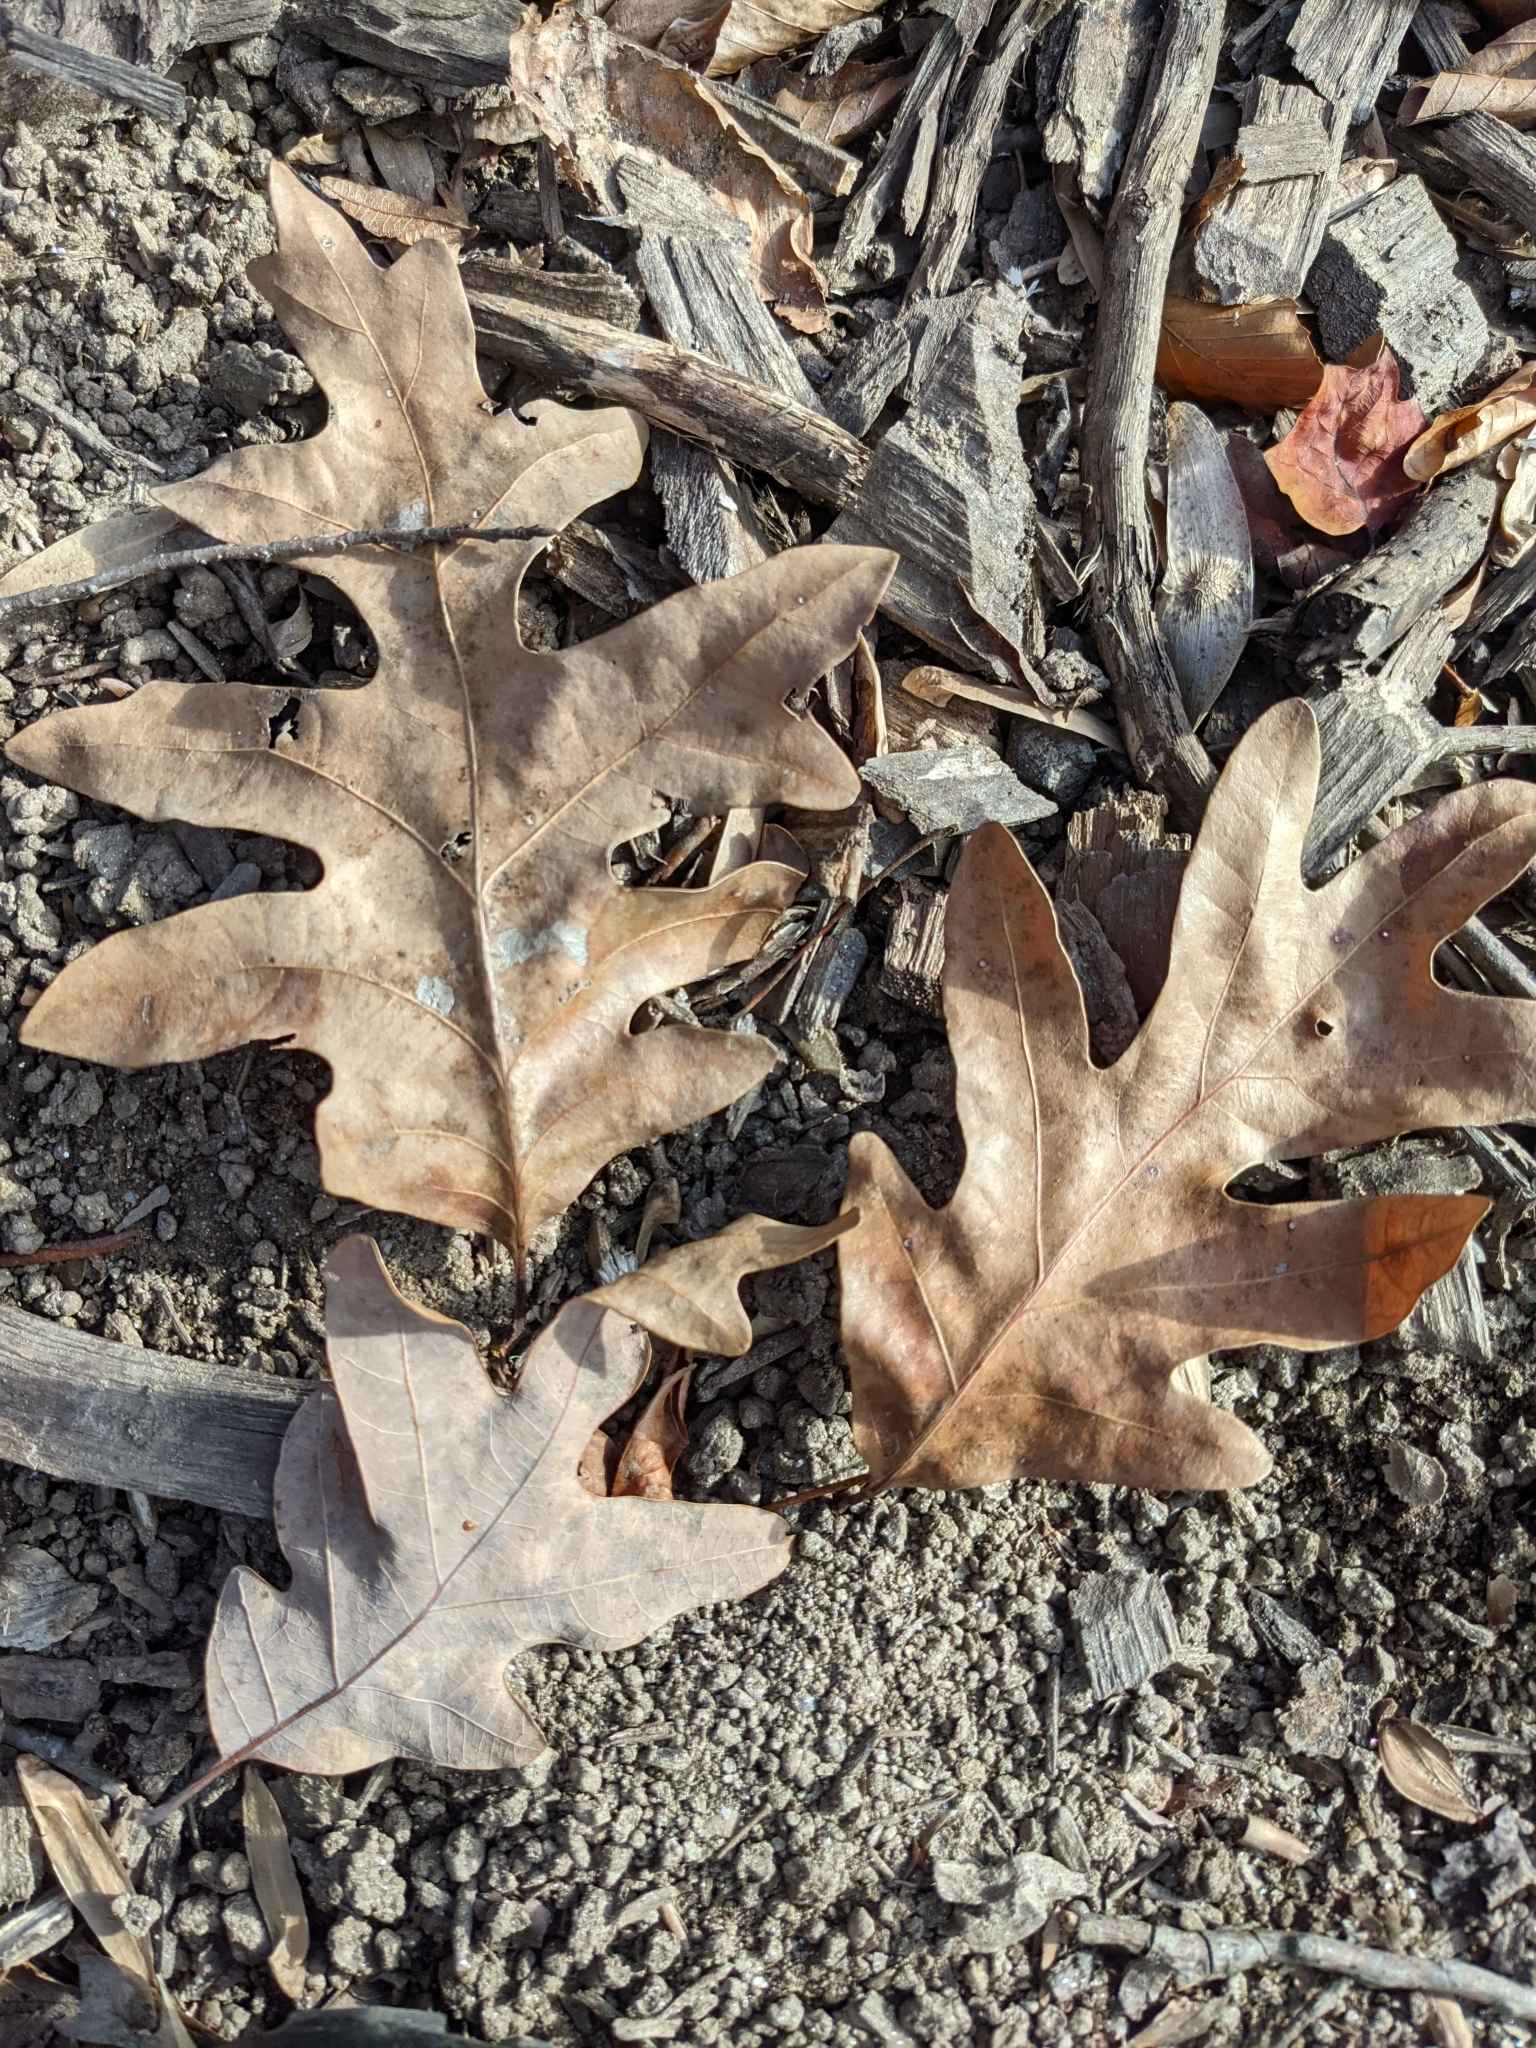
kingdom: Plantae
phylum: Tracheophyta
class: Magnoliopsida
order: Fagales
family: Fagaceae
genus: Quercus
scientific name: Quercus alba
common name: White oak
